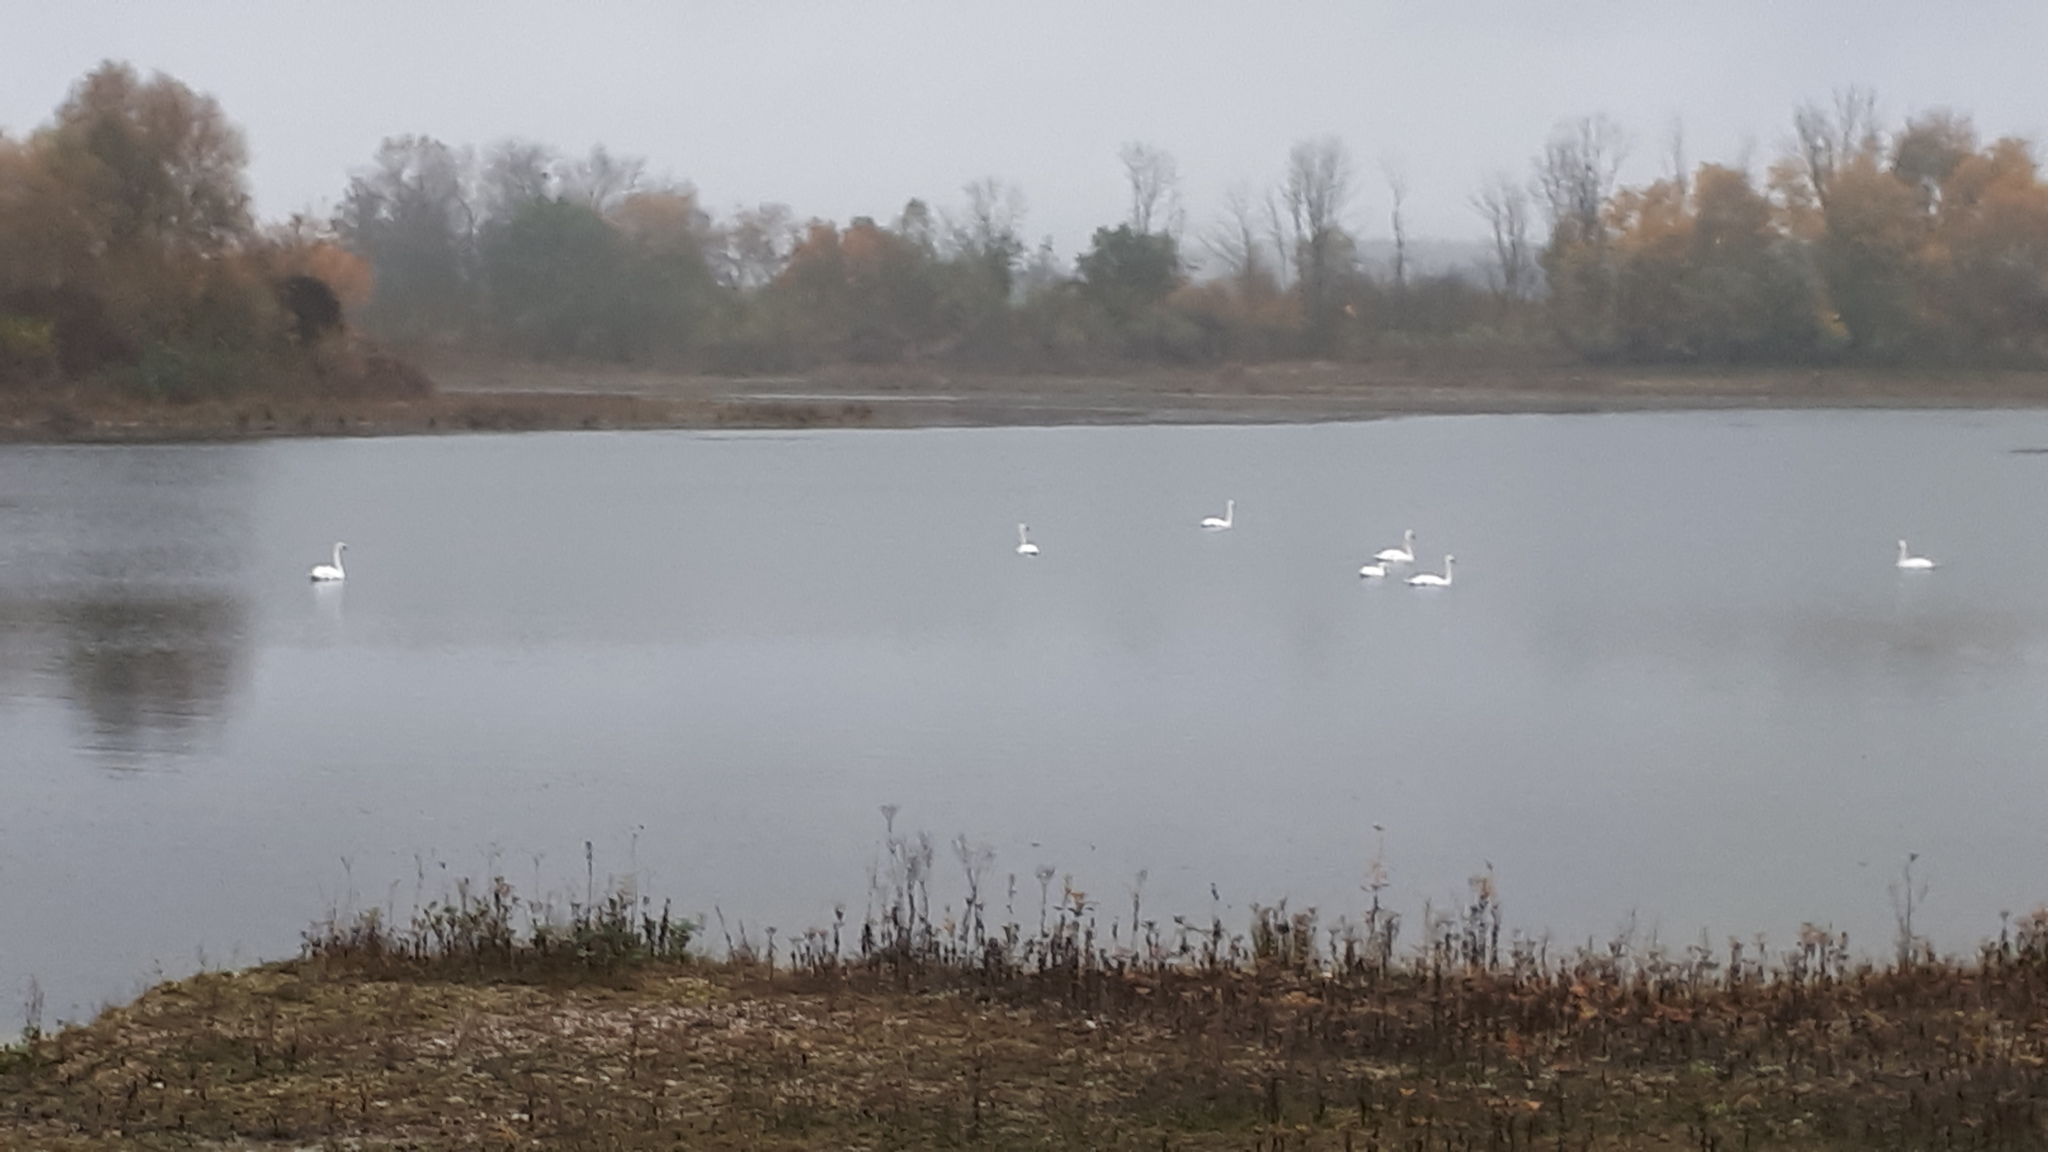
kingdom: Animalia
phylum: Chordata
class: Aves
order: Anseriformes
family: Anatidae
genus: Cygnus
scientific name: Cygnus olor
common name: Mute swan
